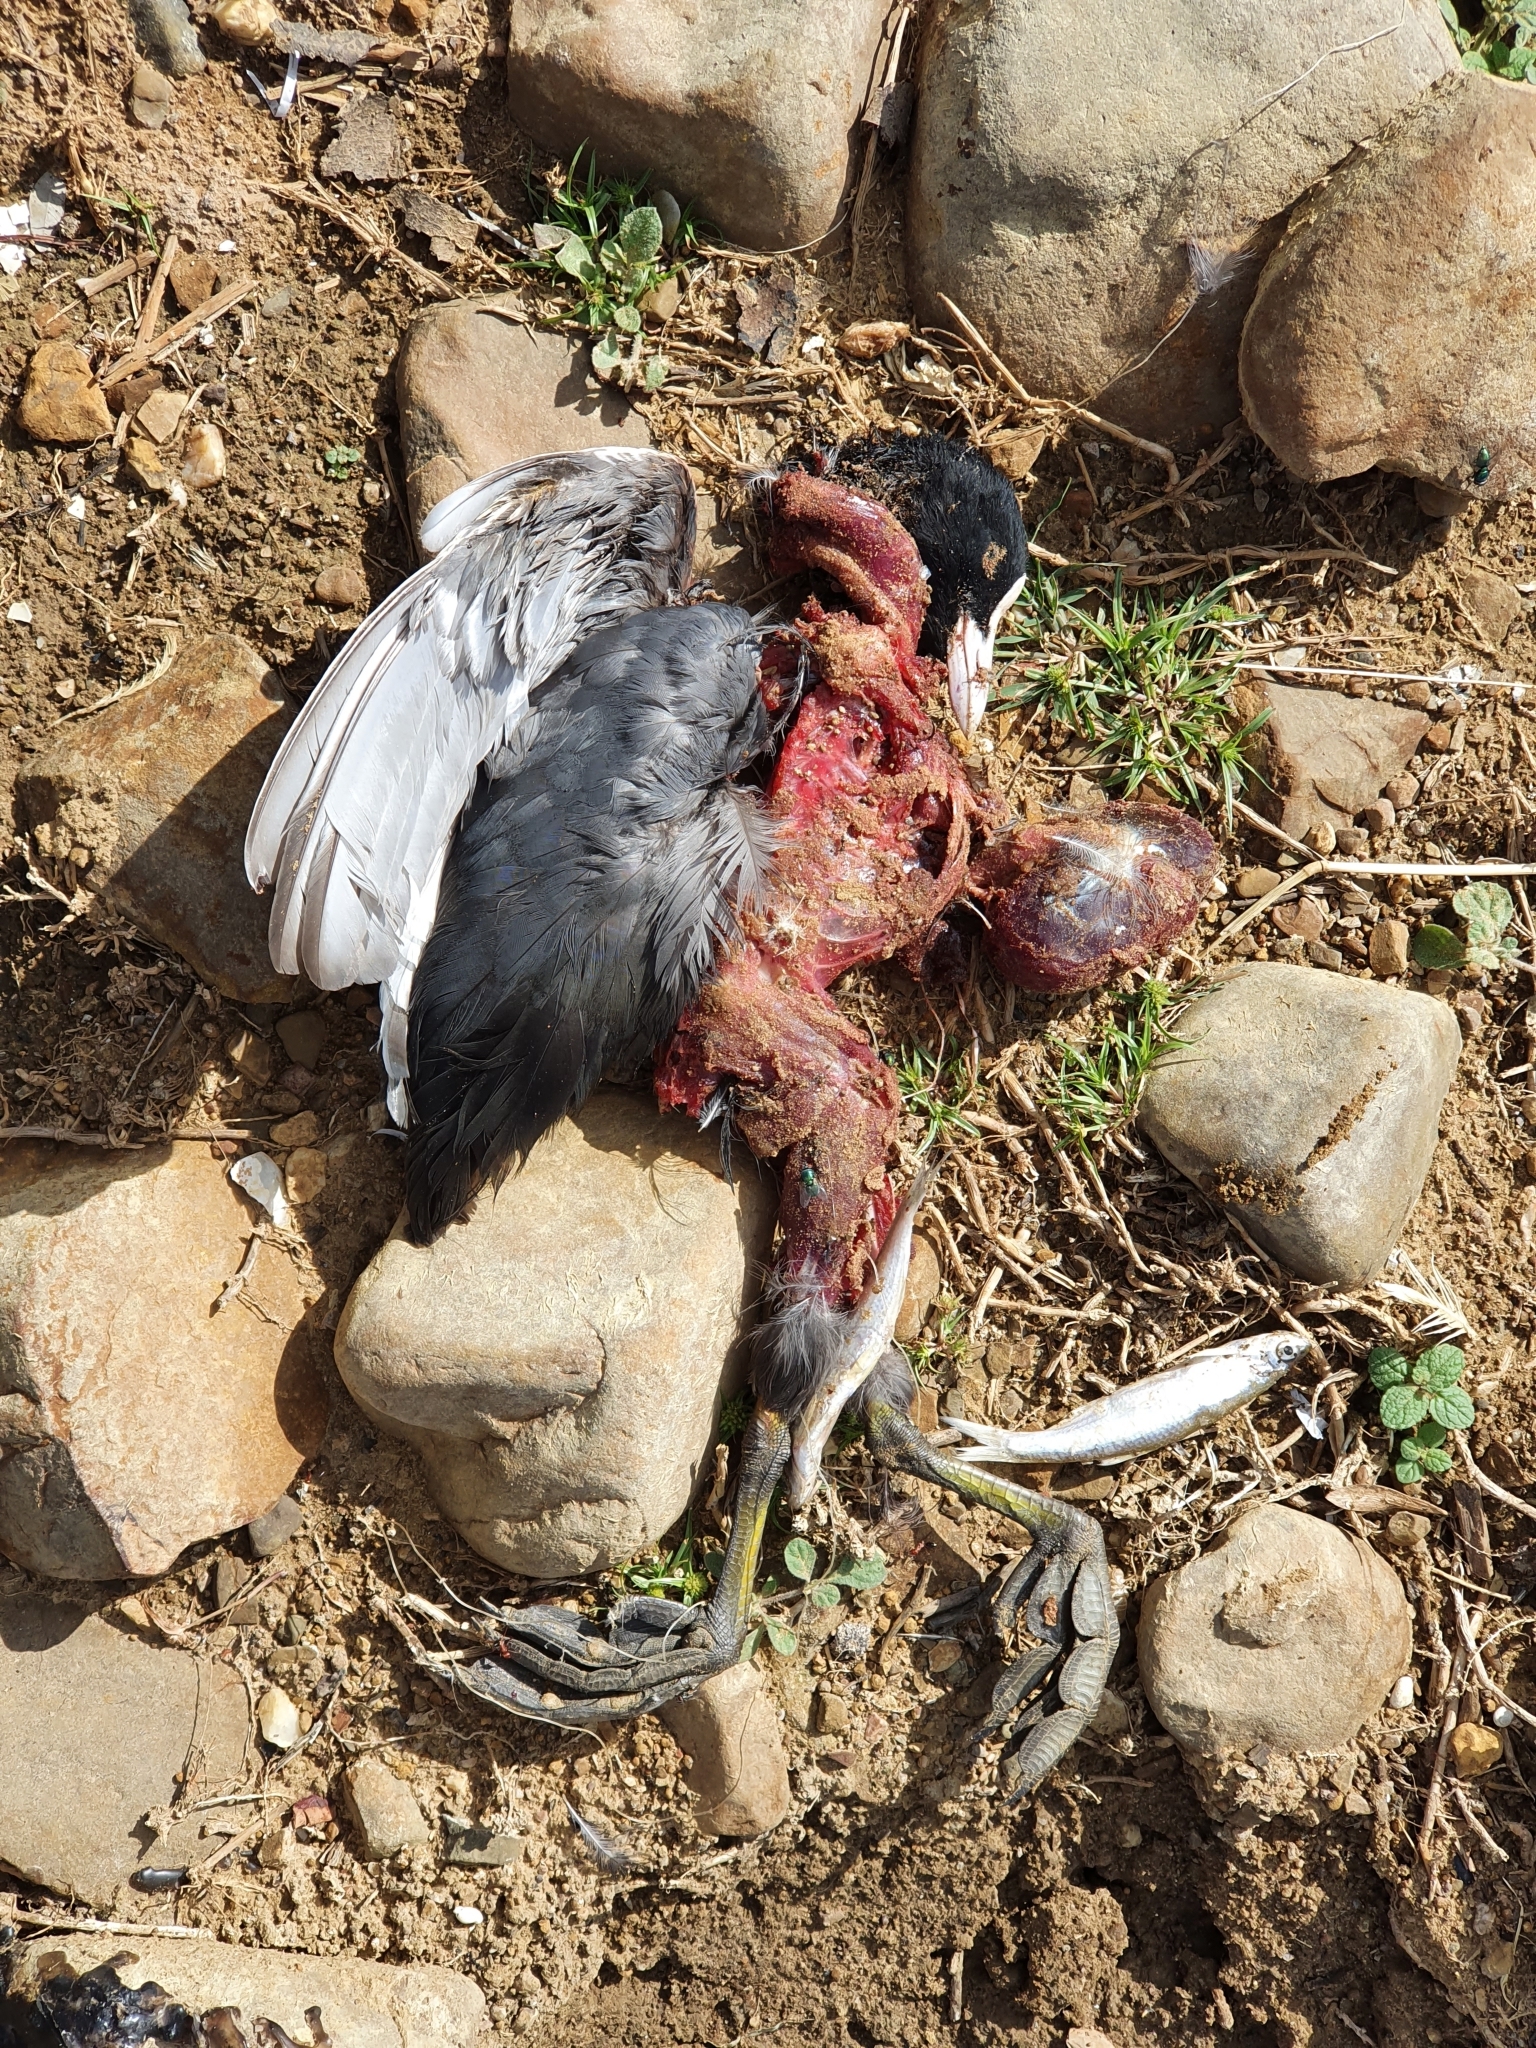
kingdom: Animalia
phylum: Chordata
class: Aves
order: Gruiformes
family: Rallidae
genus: Fulica
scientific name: Fulica atra
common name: Eurasian coot
